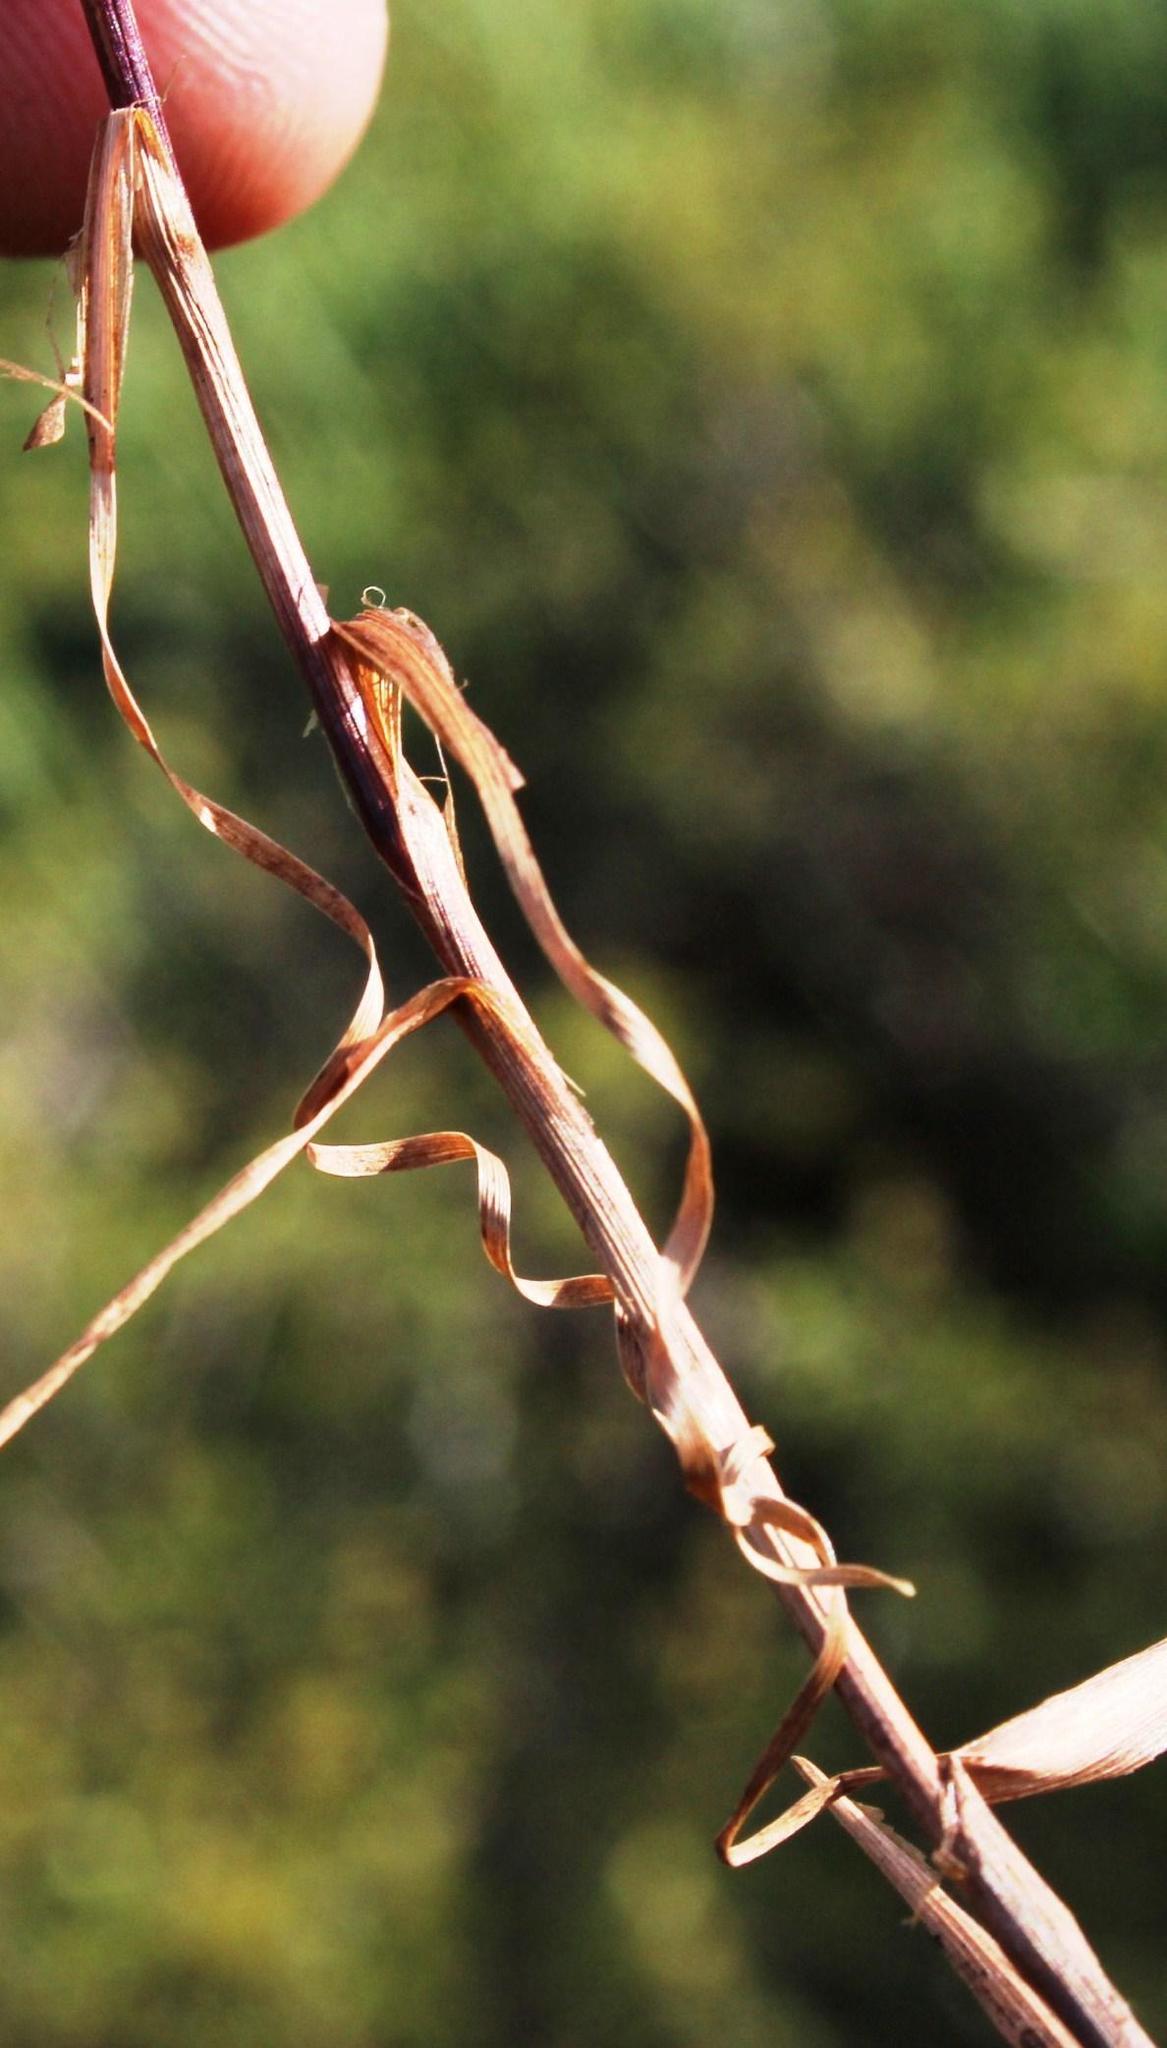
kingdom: Plantae
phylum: Tracheophyta
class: Liliopsida
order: Poales
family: Cyperaceae
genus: Ficinia
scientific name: Ficinia ramosissima
